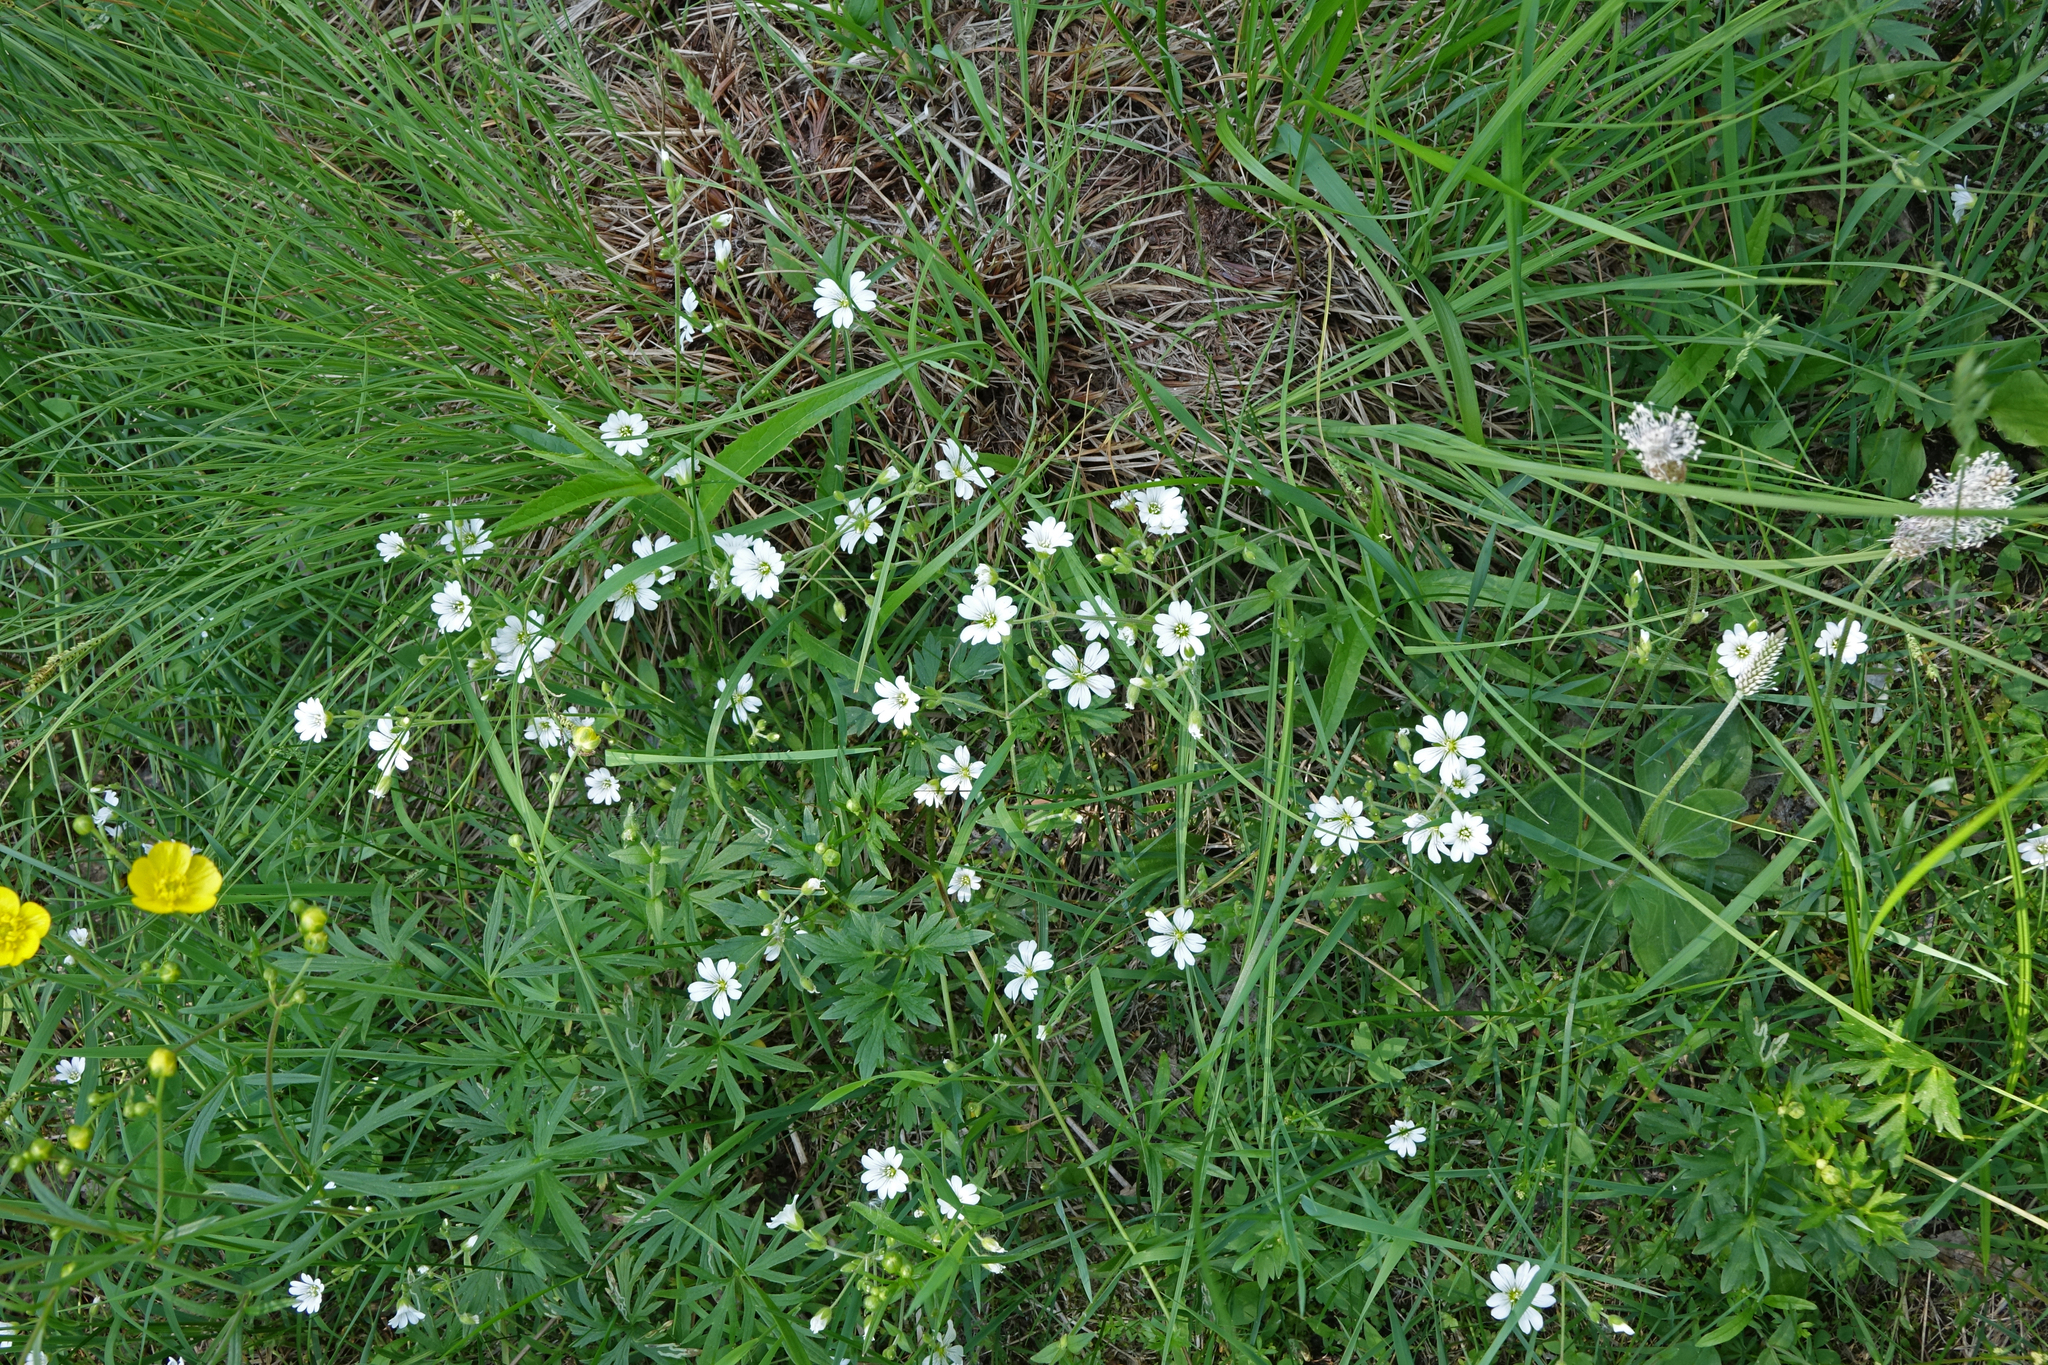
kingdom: Plantae
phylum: Tracheophyta
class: Magnoliopsida
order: Caryophyllales
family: Caryophyllaceae
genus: Cerastium
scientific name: Cerastium arvense
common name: Field mouse-ear
